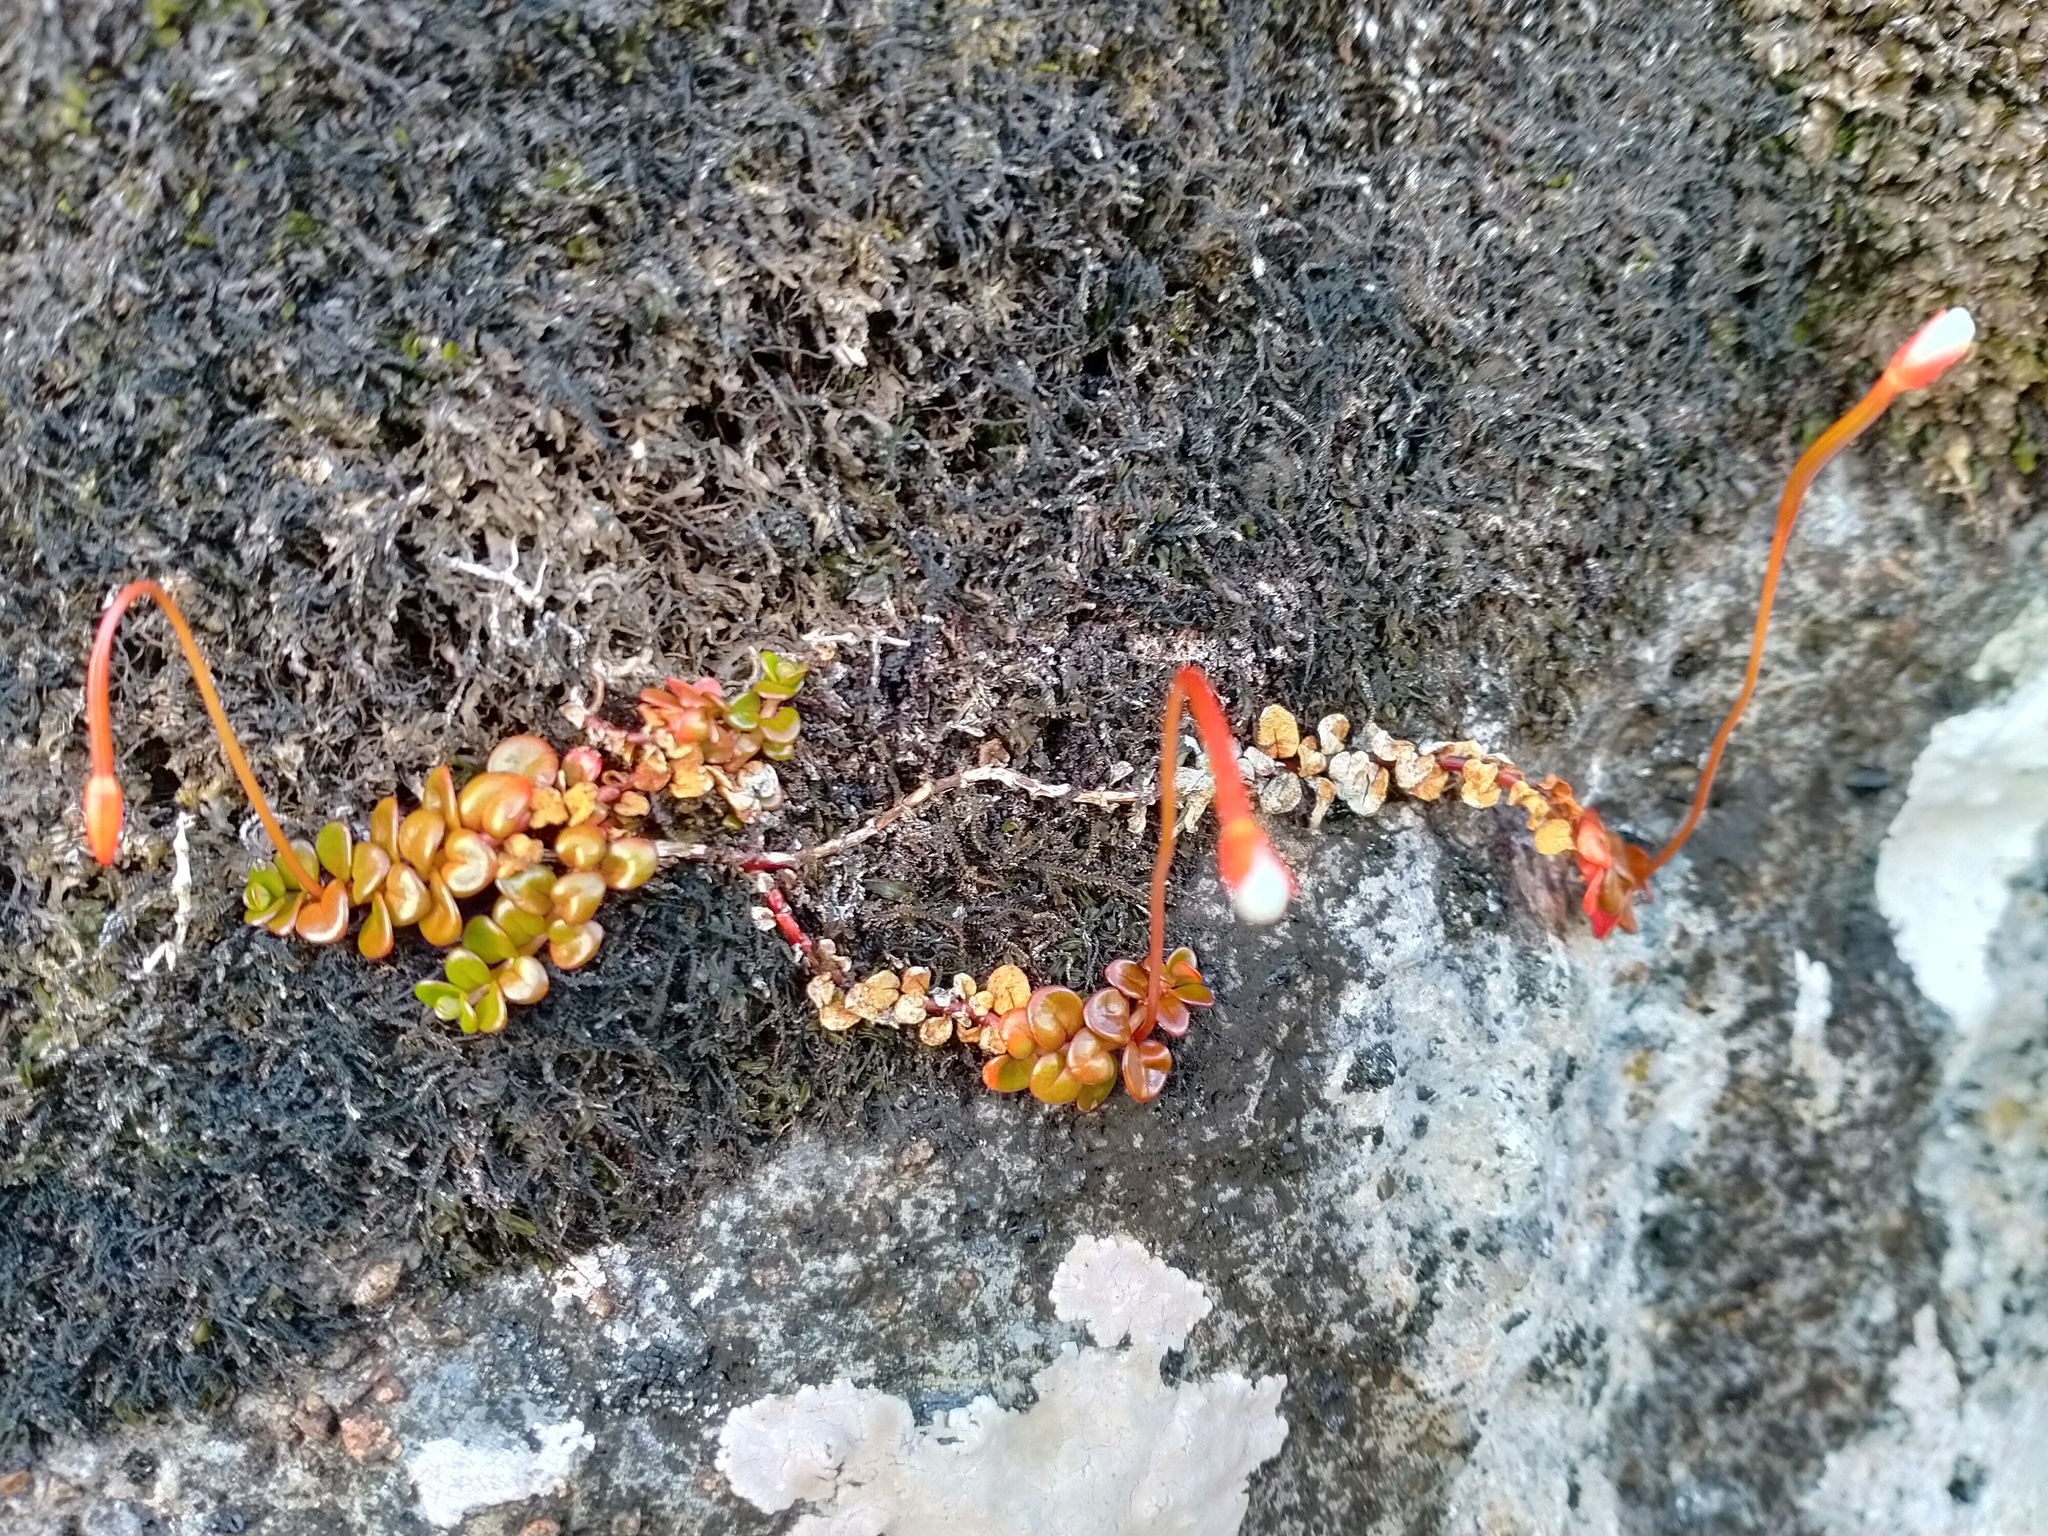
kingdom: Plantae
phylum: Tracheophyta
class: Magnoliopsida
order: Myrtales
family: Onagraceae
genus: Epilobium
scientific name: Epilobium pernitens
